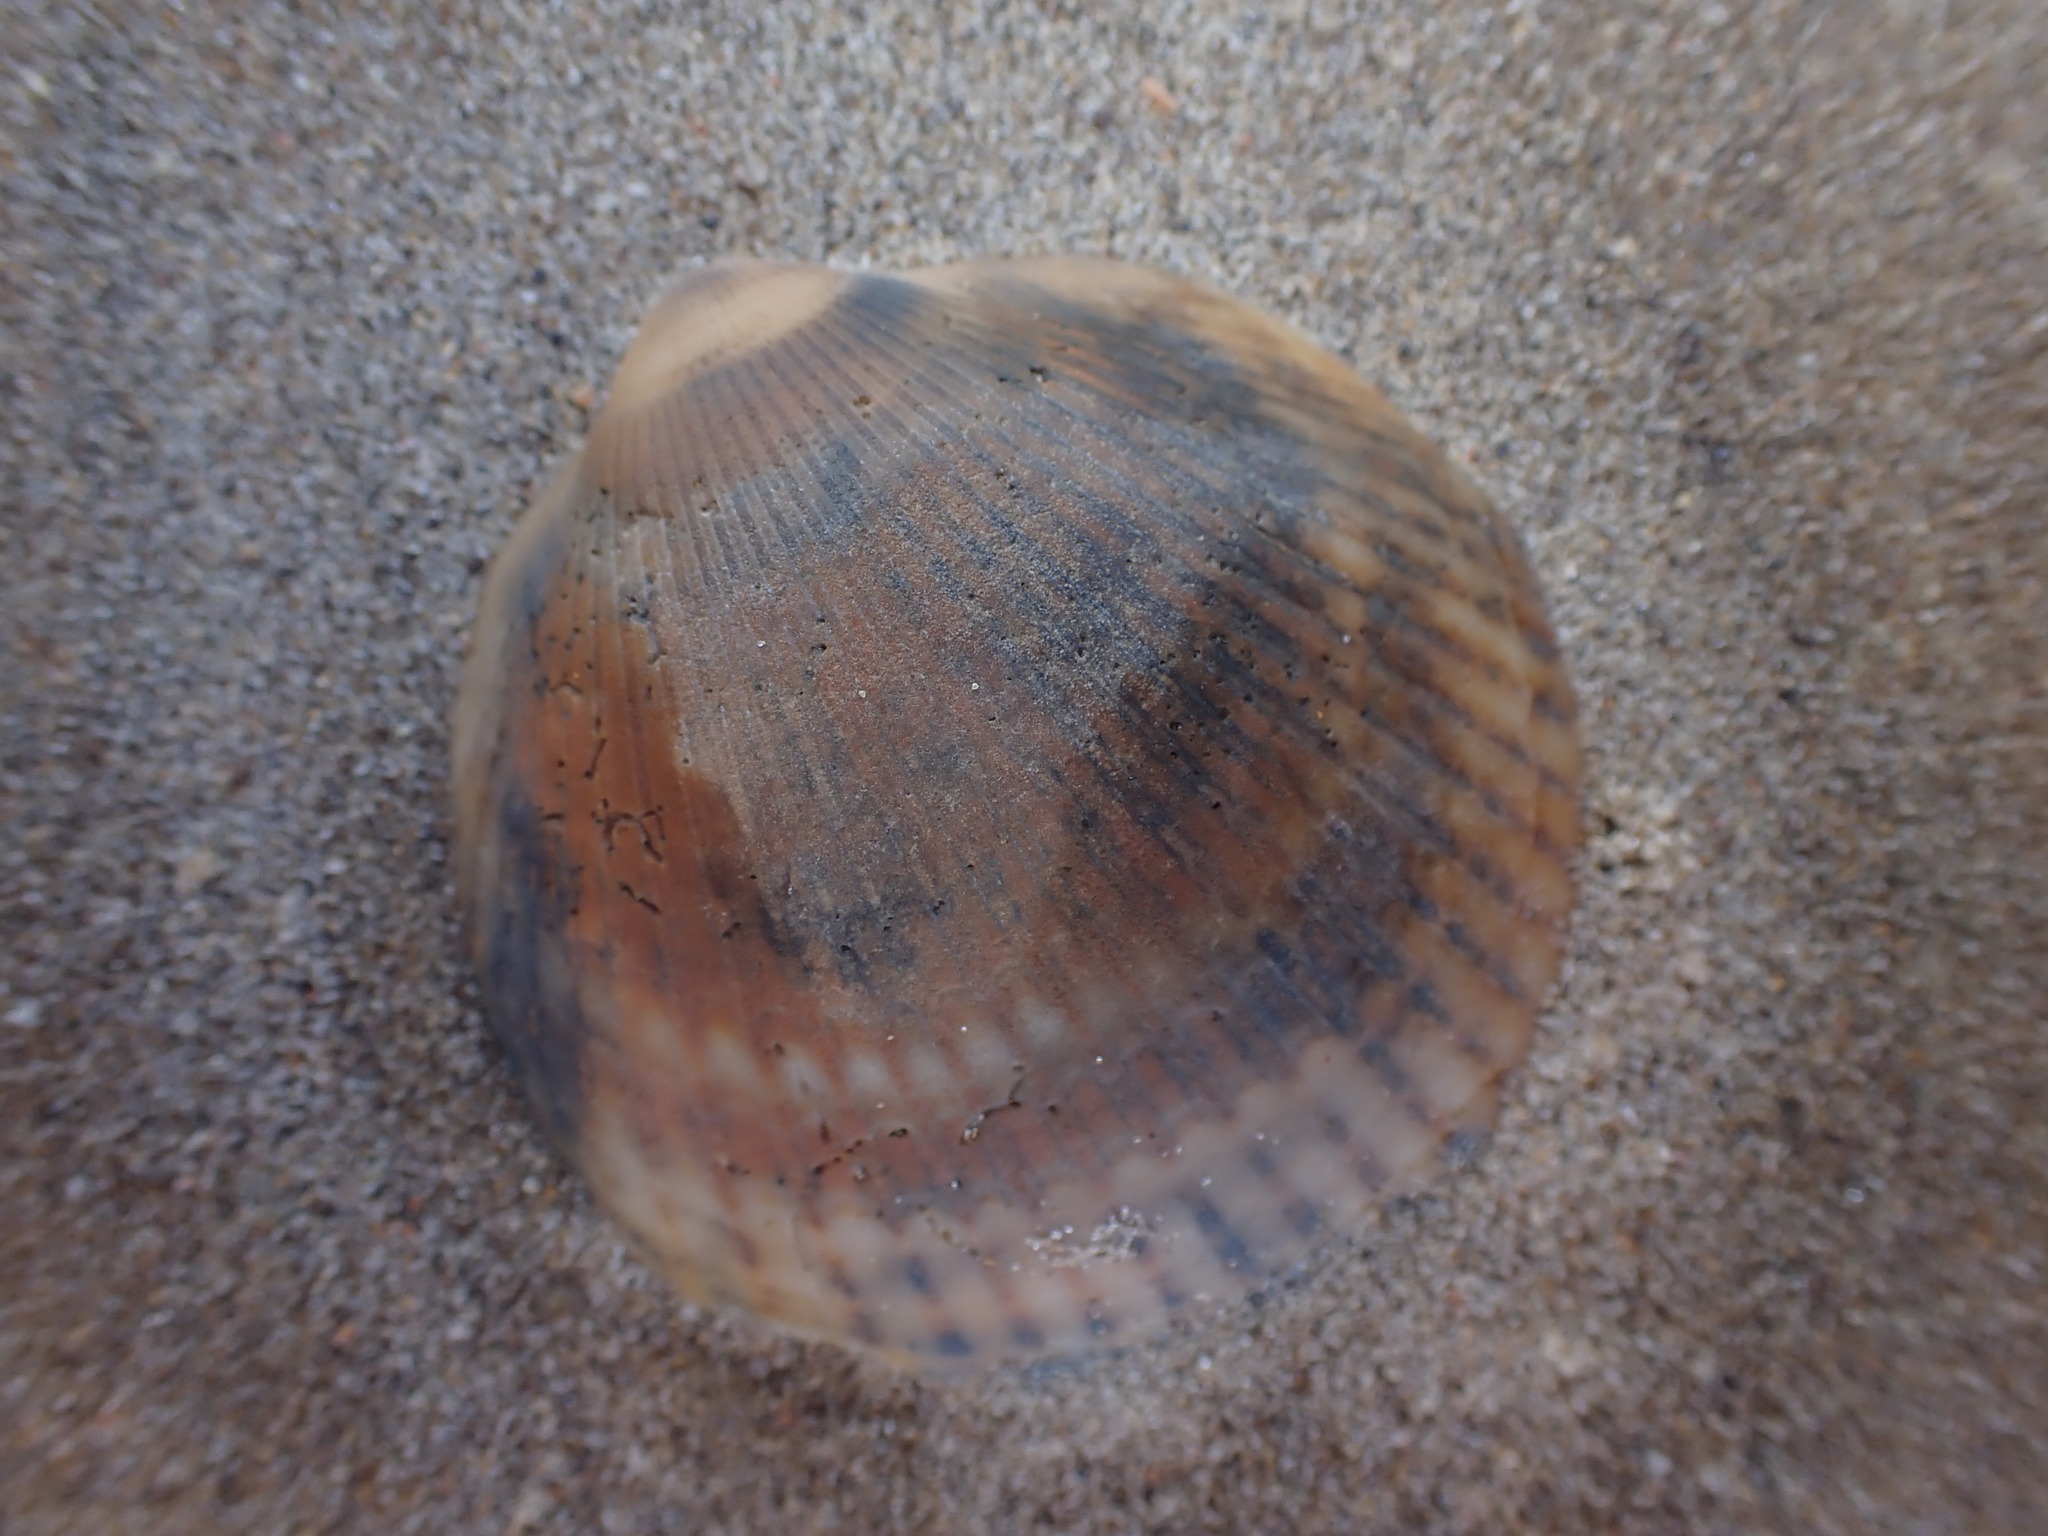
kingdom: Animalia
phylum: Mollusca
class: Bivalvia
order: Arcida
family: Glycymerididae
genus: Tucetona
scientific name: Tucetona laticostata
